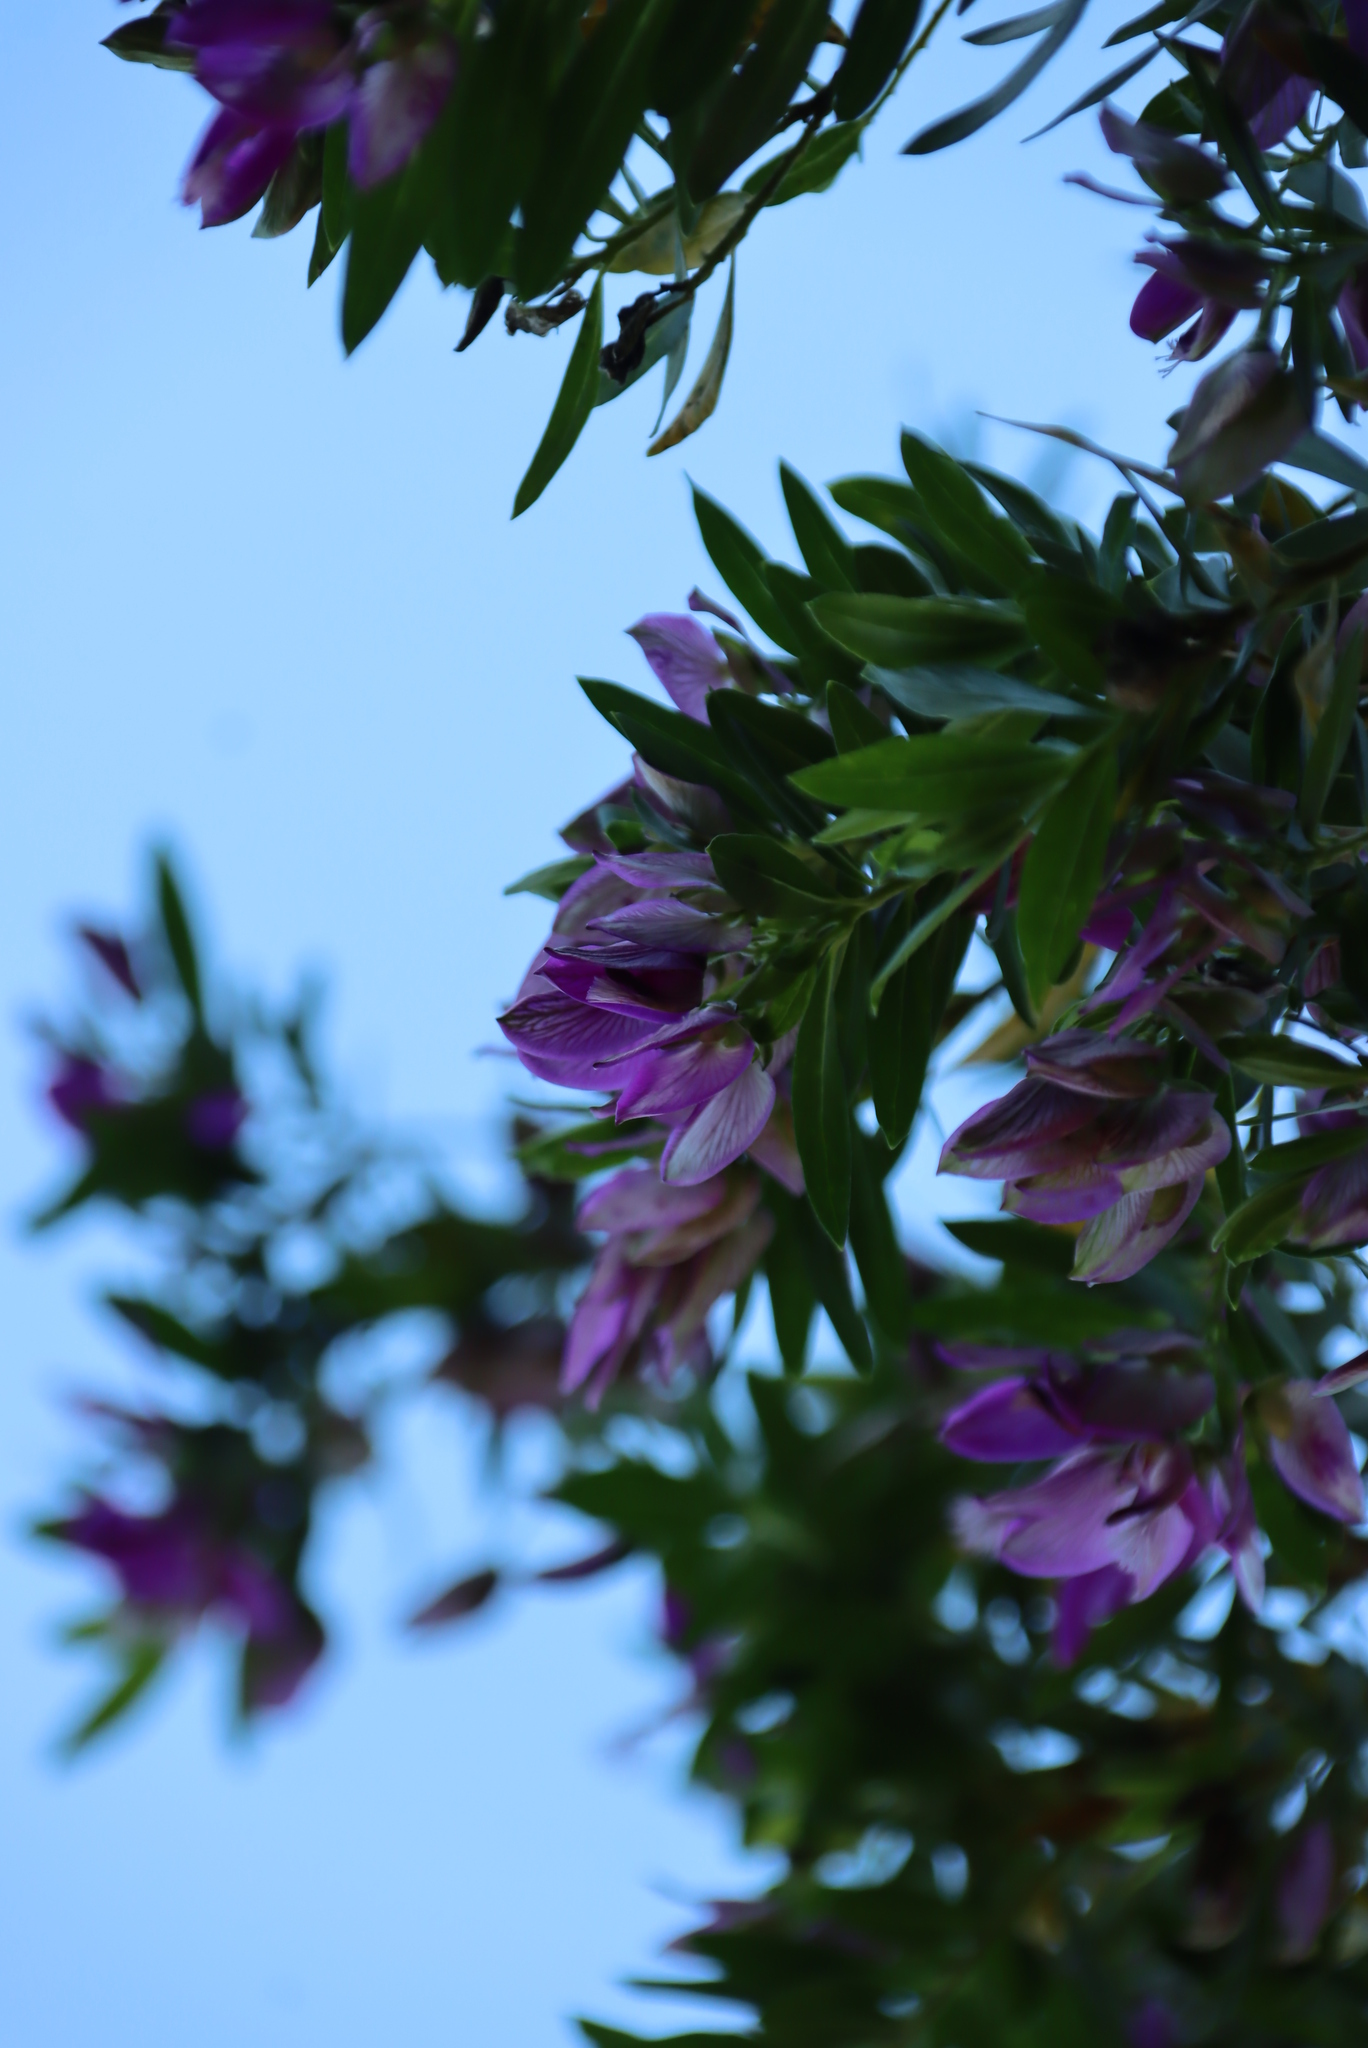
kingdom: Plantae
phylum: Tracheophyta
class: Magnoliopsida
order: Fabales
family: Polygalaceae
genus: Polygala
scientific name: Polygala myrtifolia
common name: Myrtle-leaf milkwort
